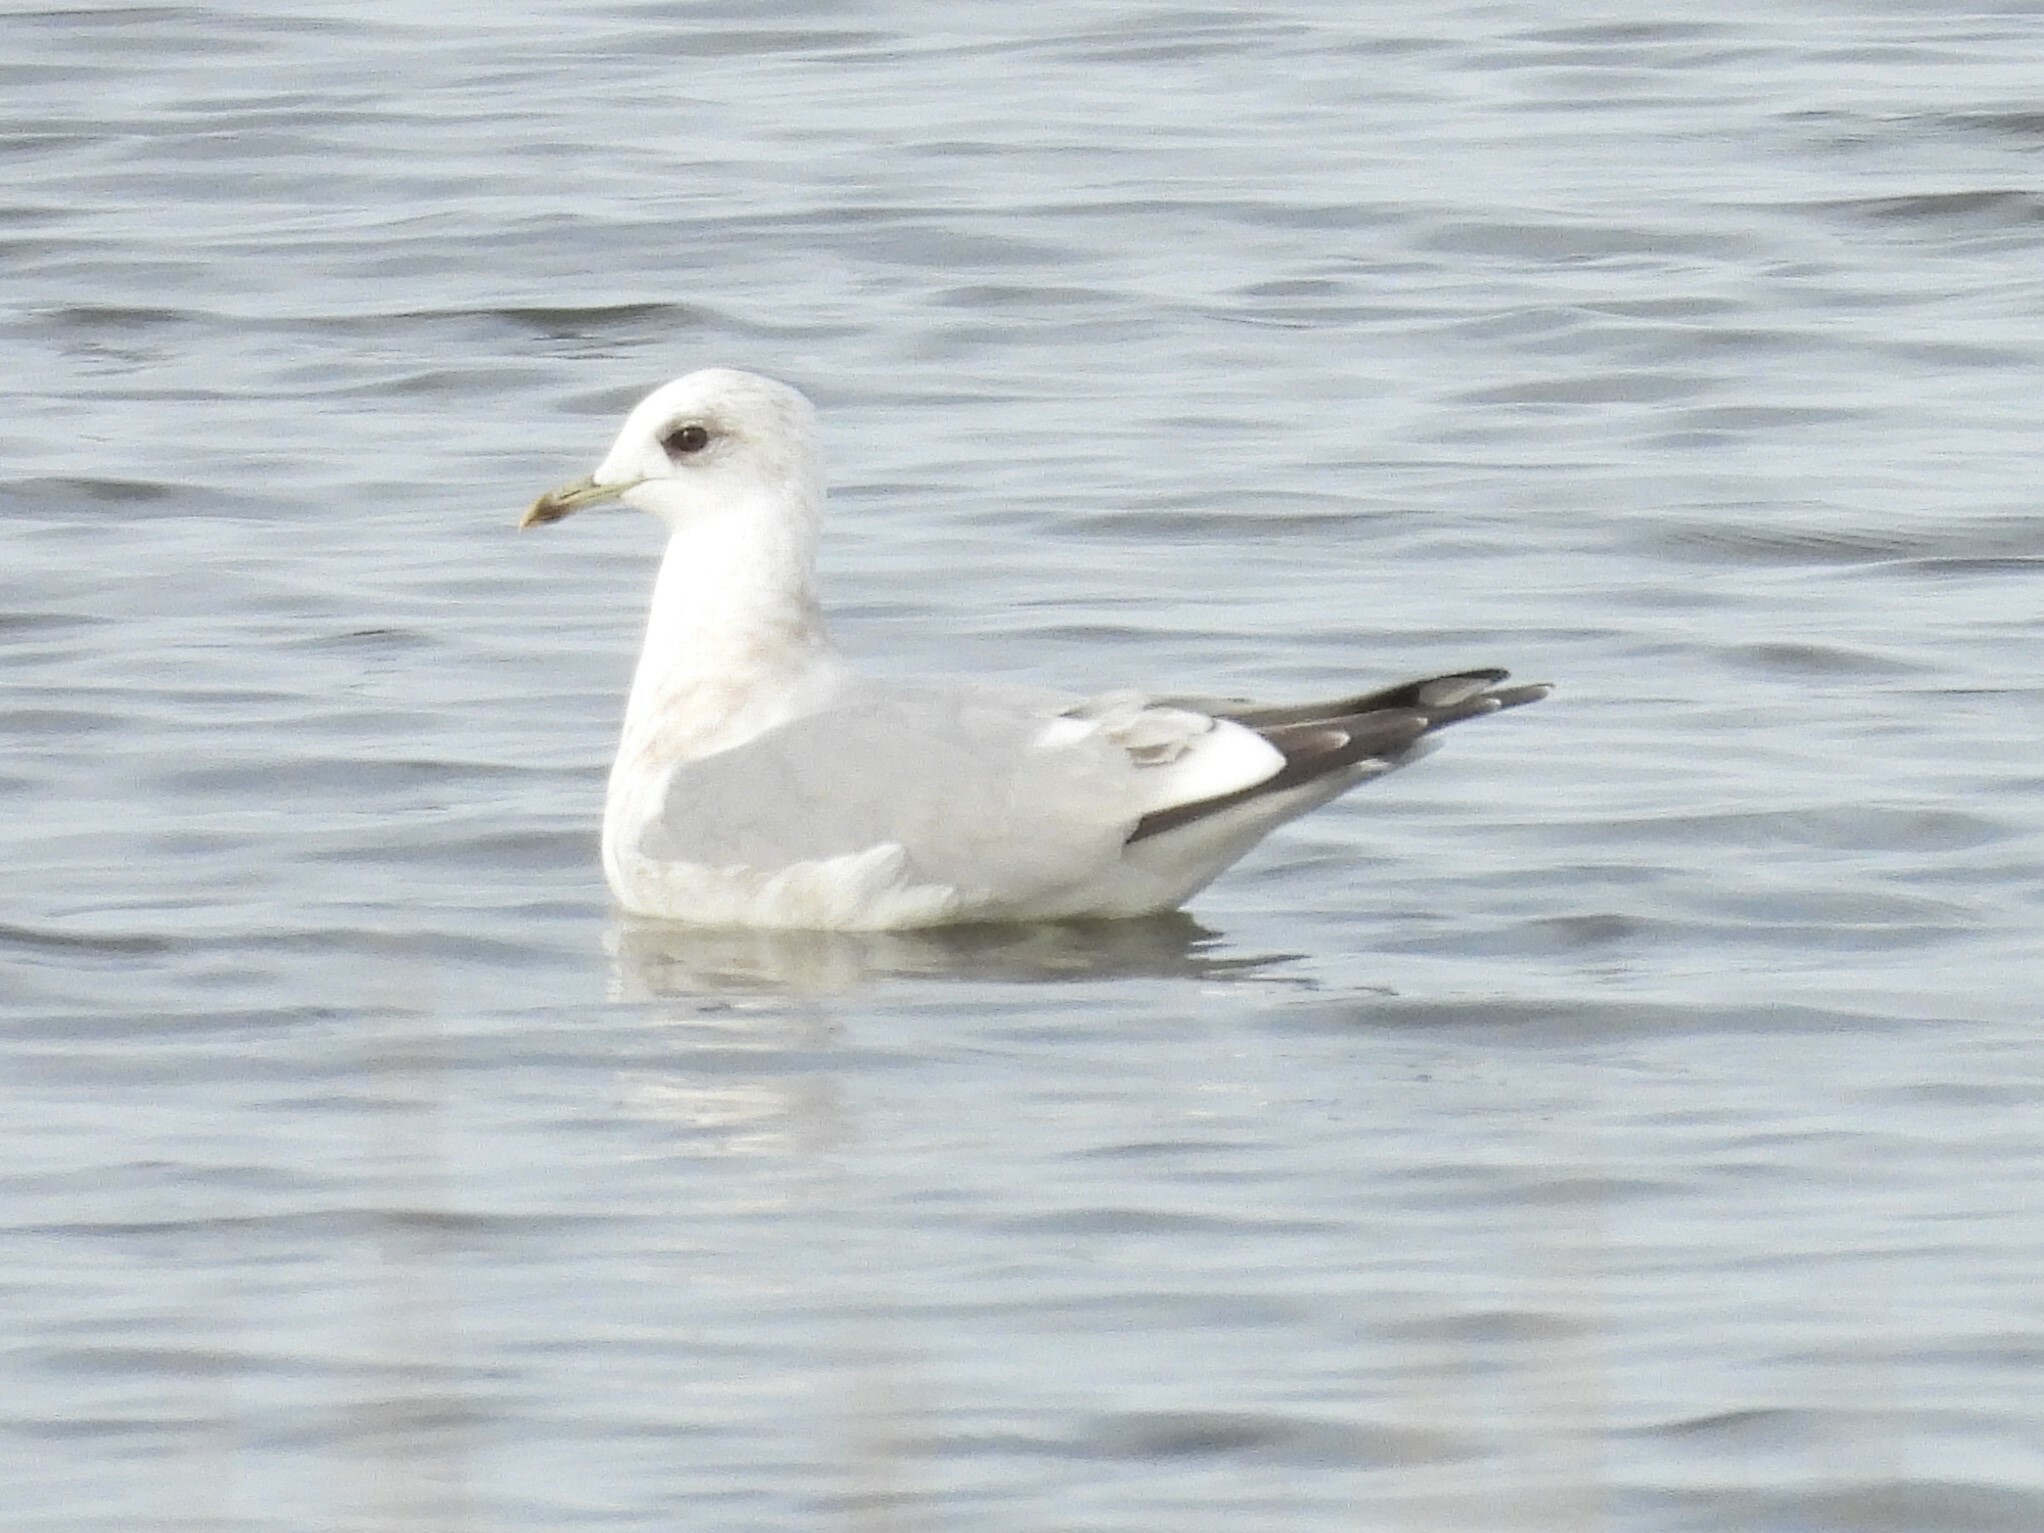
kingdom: Animalia
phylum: Chordata
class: Aves
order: Charadriiformes
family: Laridae
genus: Larus
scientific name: Larus brachyrhynchus
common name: Short-billed gull
